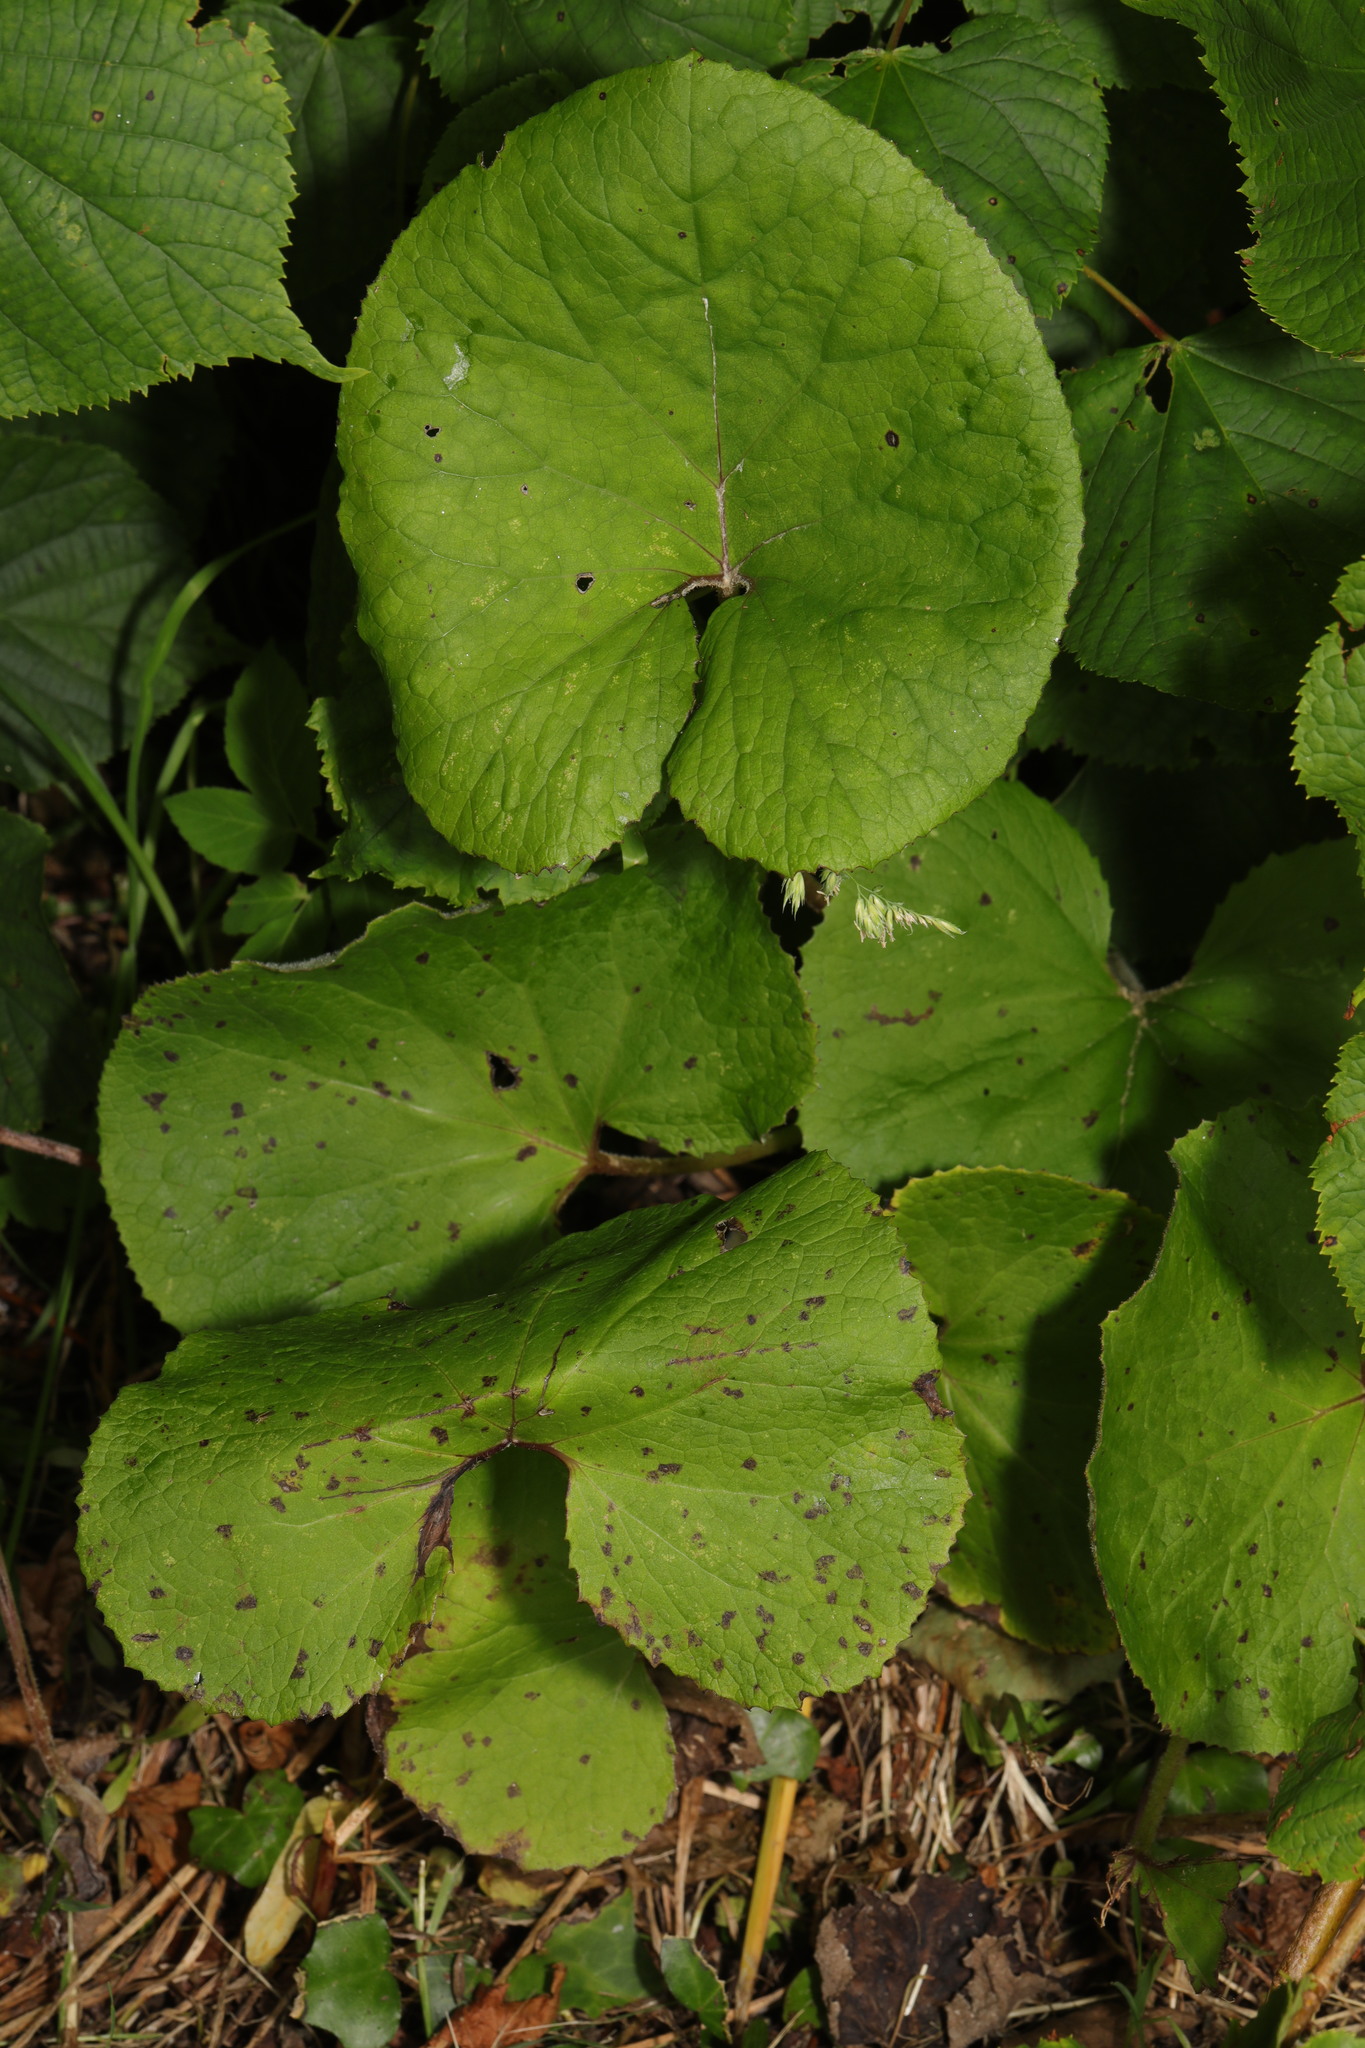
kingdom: Plantae
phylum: Tracheophyta
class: Magnoliopsida
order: Asterales
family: Asteraceae
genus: Petasites
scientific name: Petasites pyrenaicus
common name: Winter heliotrope
